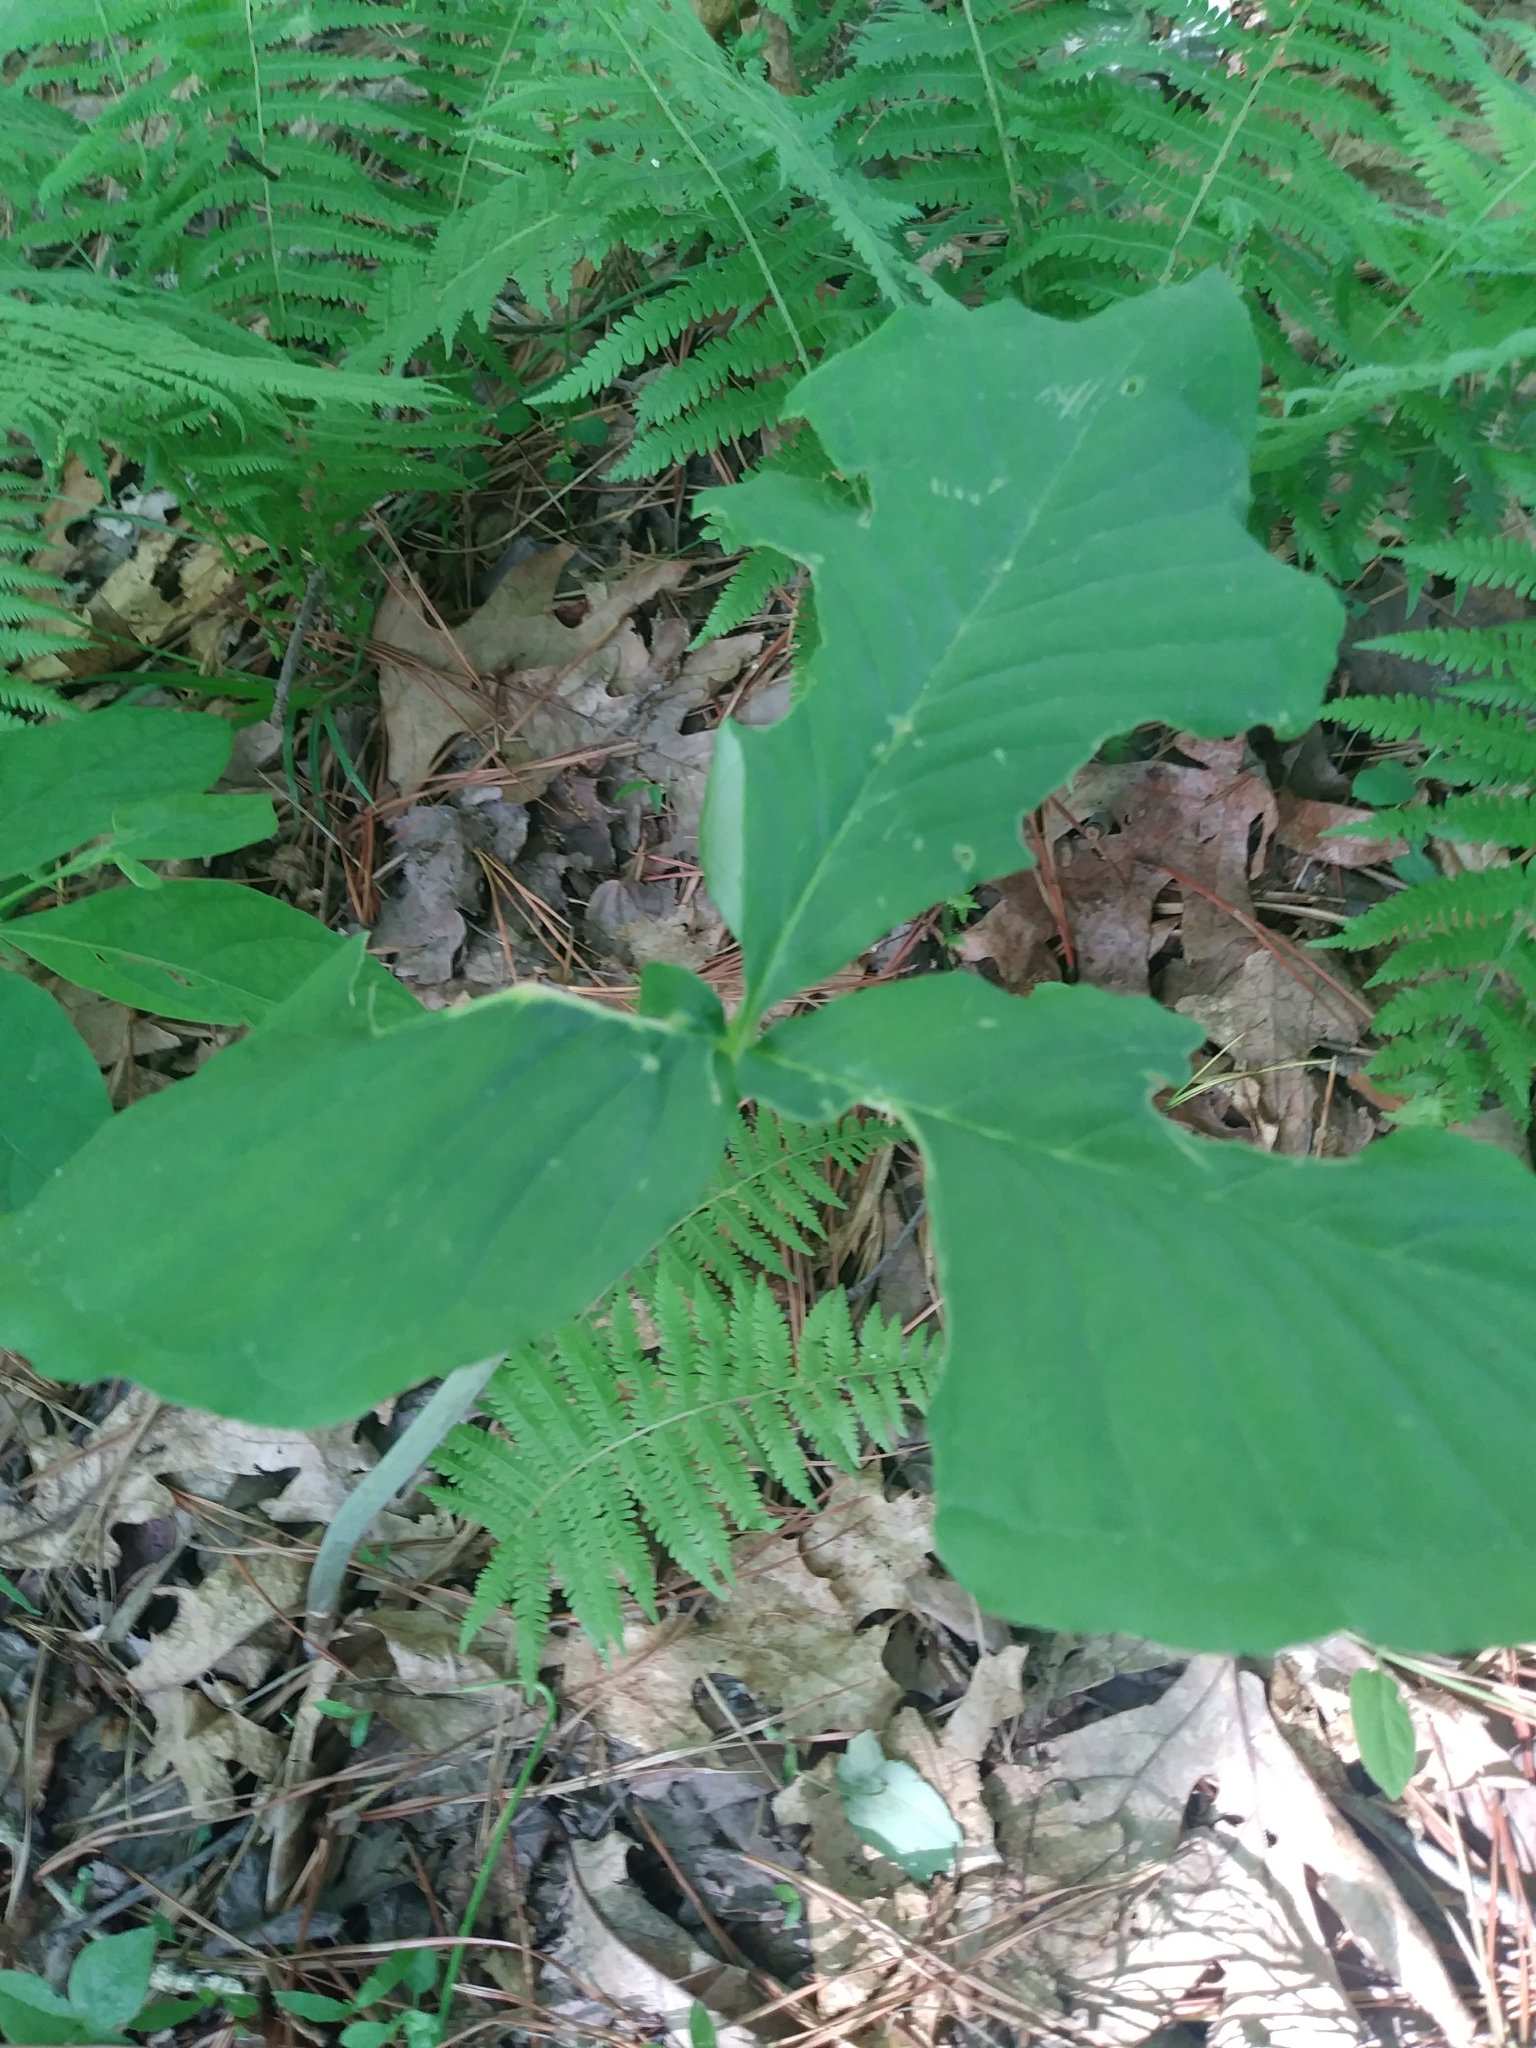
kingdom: Plantae
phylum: Tracheophyta
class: Liliopsida
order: Alismatales
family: Araceae
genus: Arisaema
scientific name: Arisaema triphyllum
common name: Jack-in-the-pulpit
